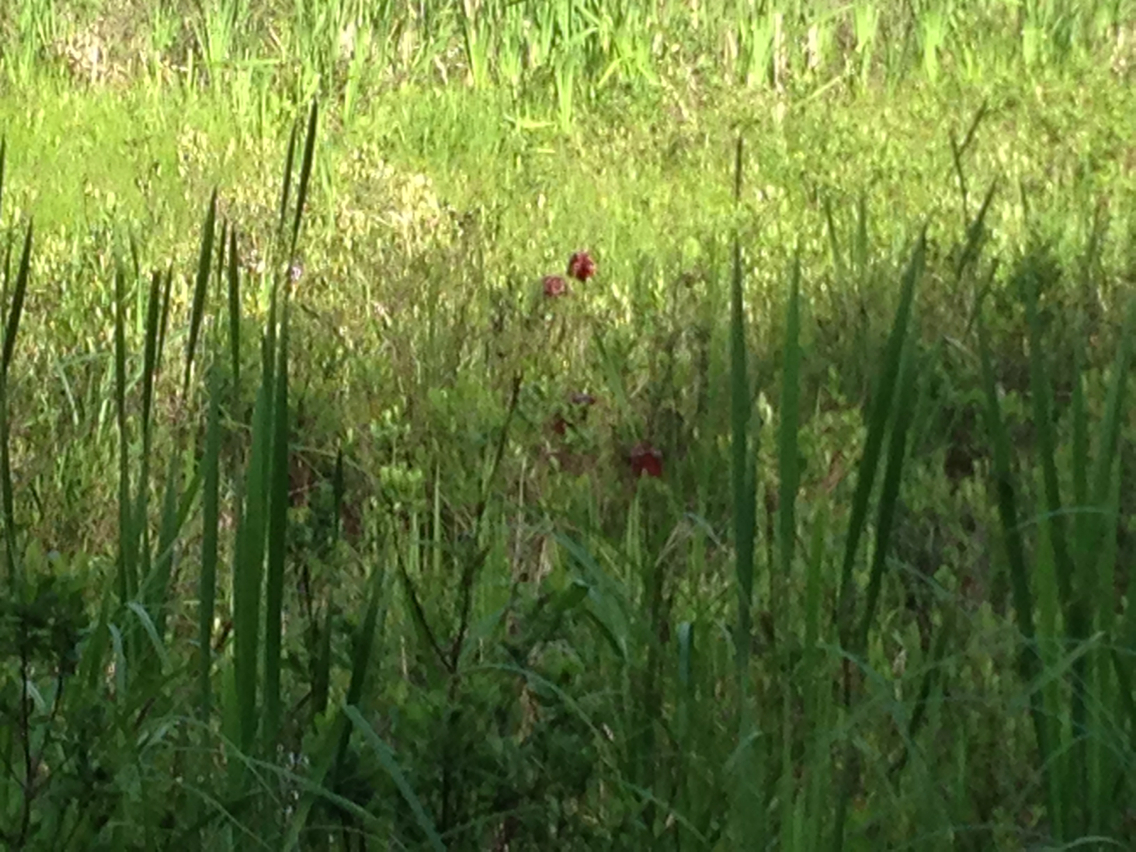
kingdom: Plantae
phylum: Tracheophyta
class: Magnoliopsida
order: Ericales
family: Sarraceniaceae
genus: Sarracenia
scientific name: Sarracenia purpurea
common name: Pitcherplant
